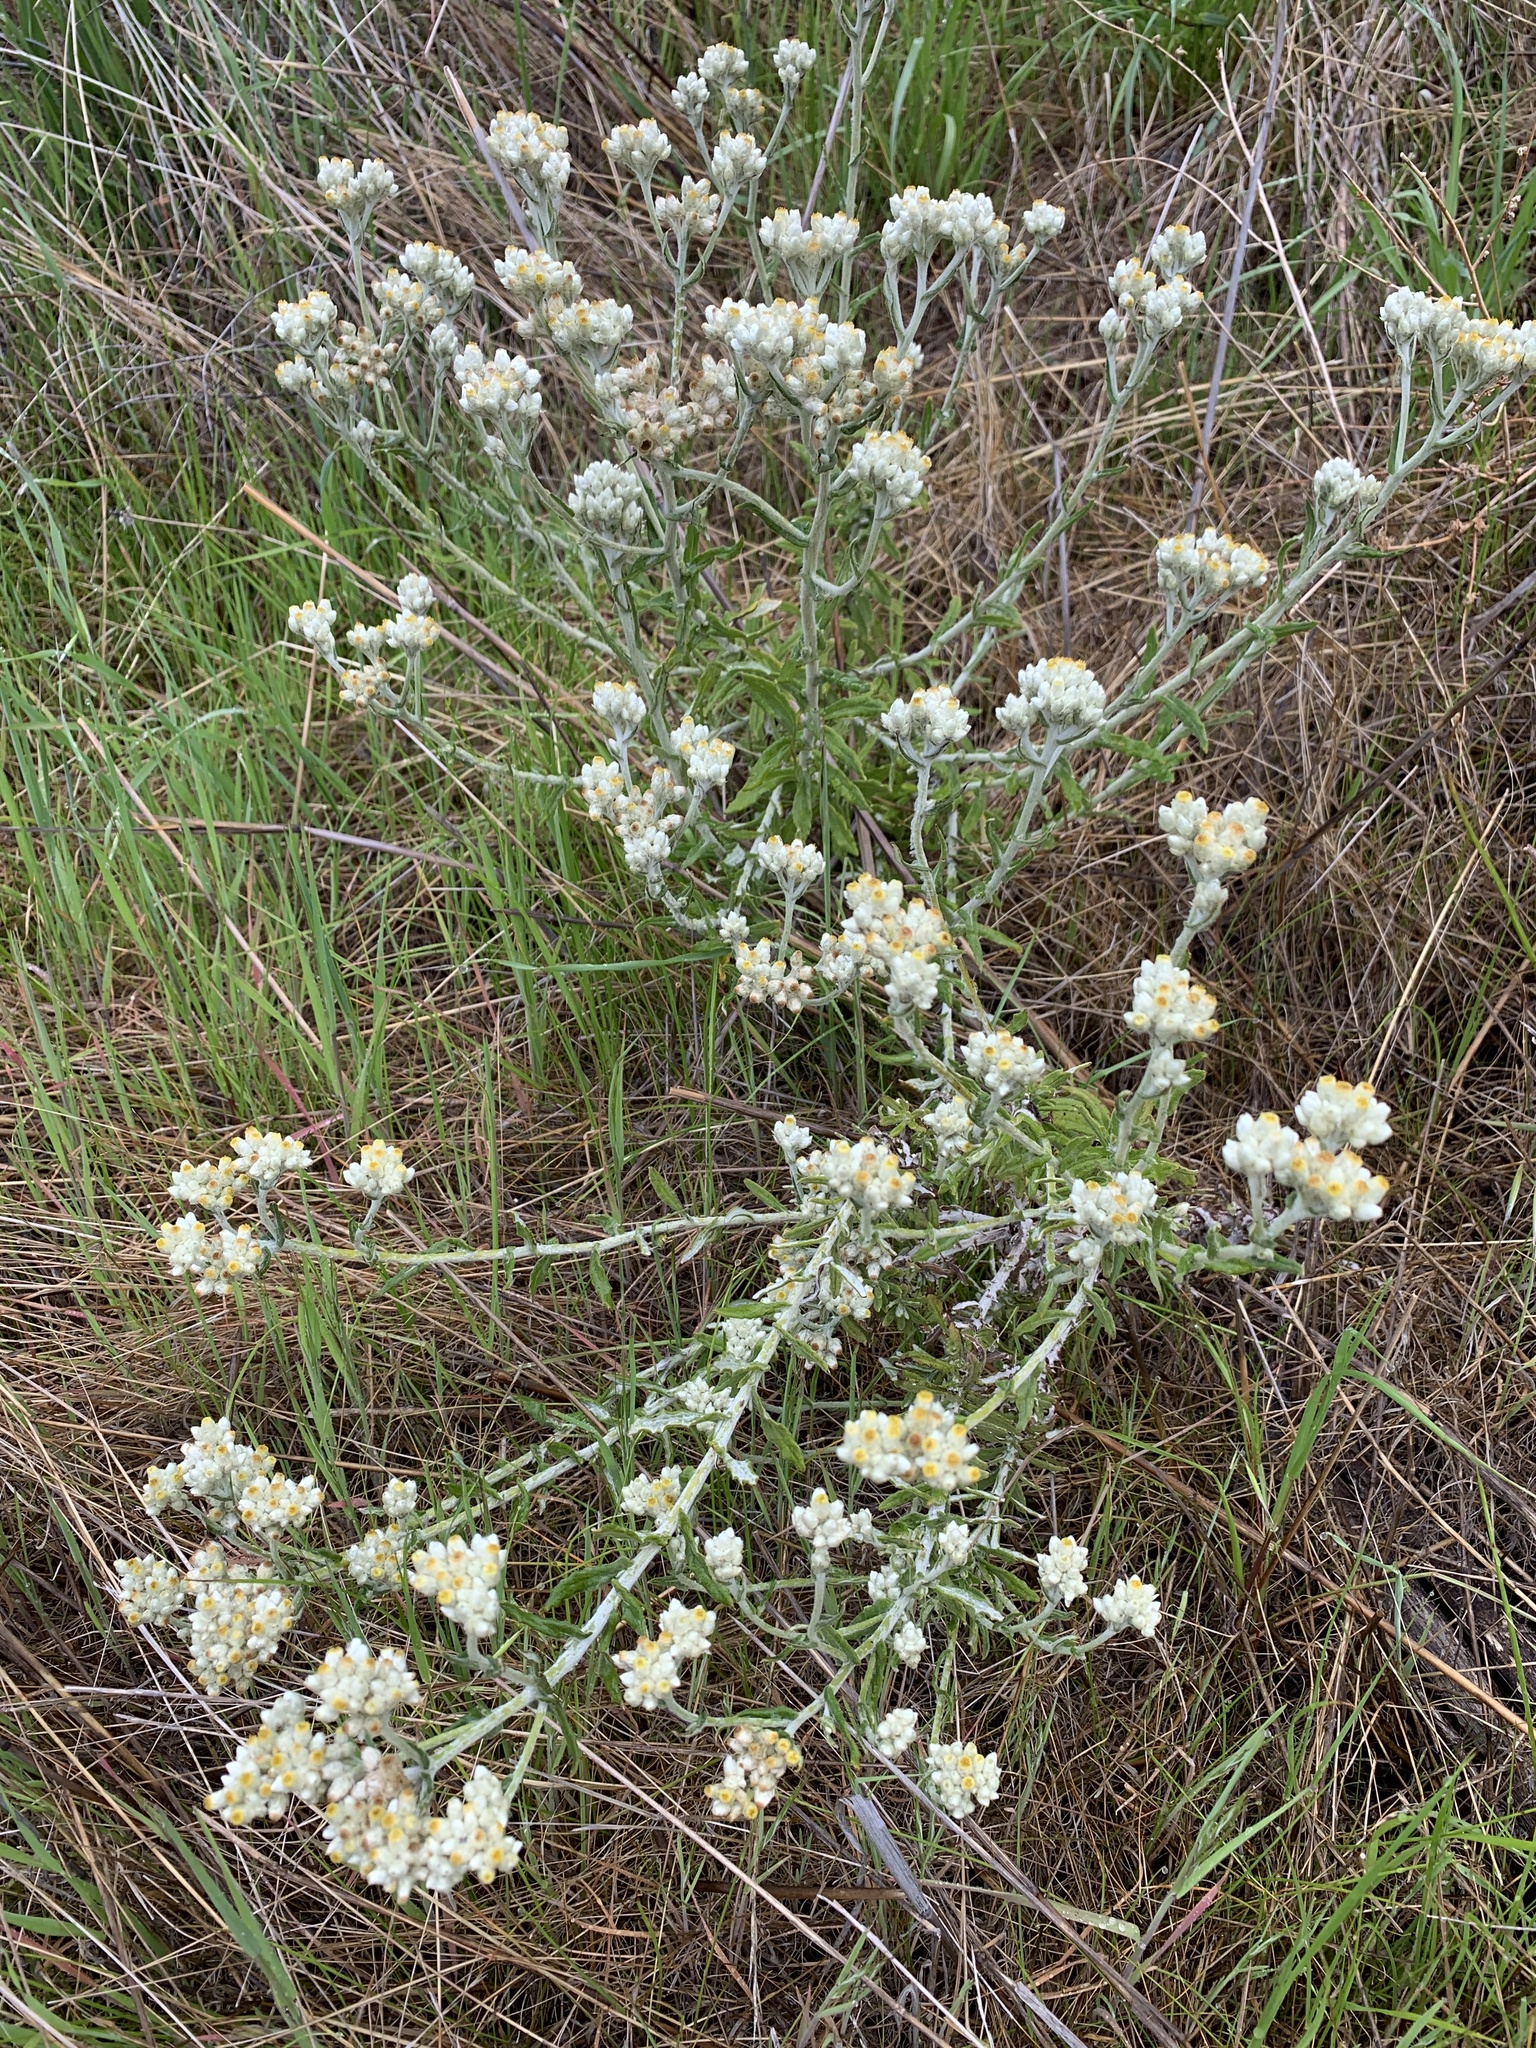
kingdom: Plantae
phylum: Tracheophyta
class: Magnoliopsida
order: Asterales
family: Asteraceae
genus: Pseudognaphalium
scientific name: Pseudognaphalium biolettii
